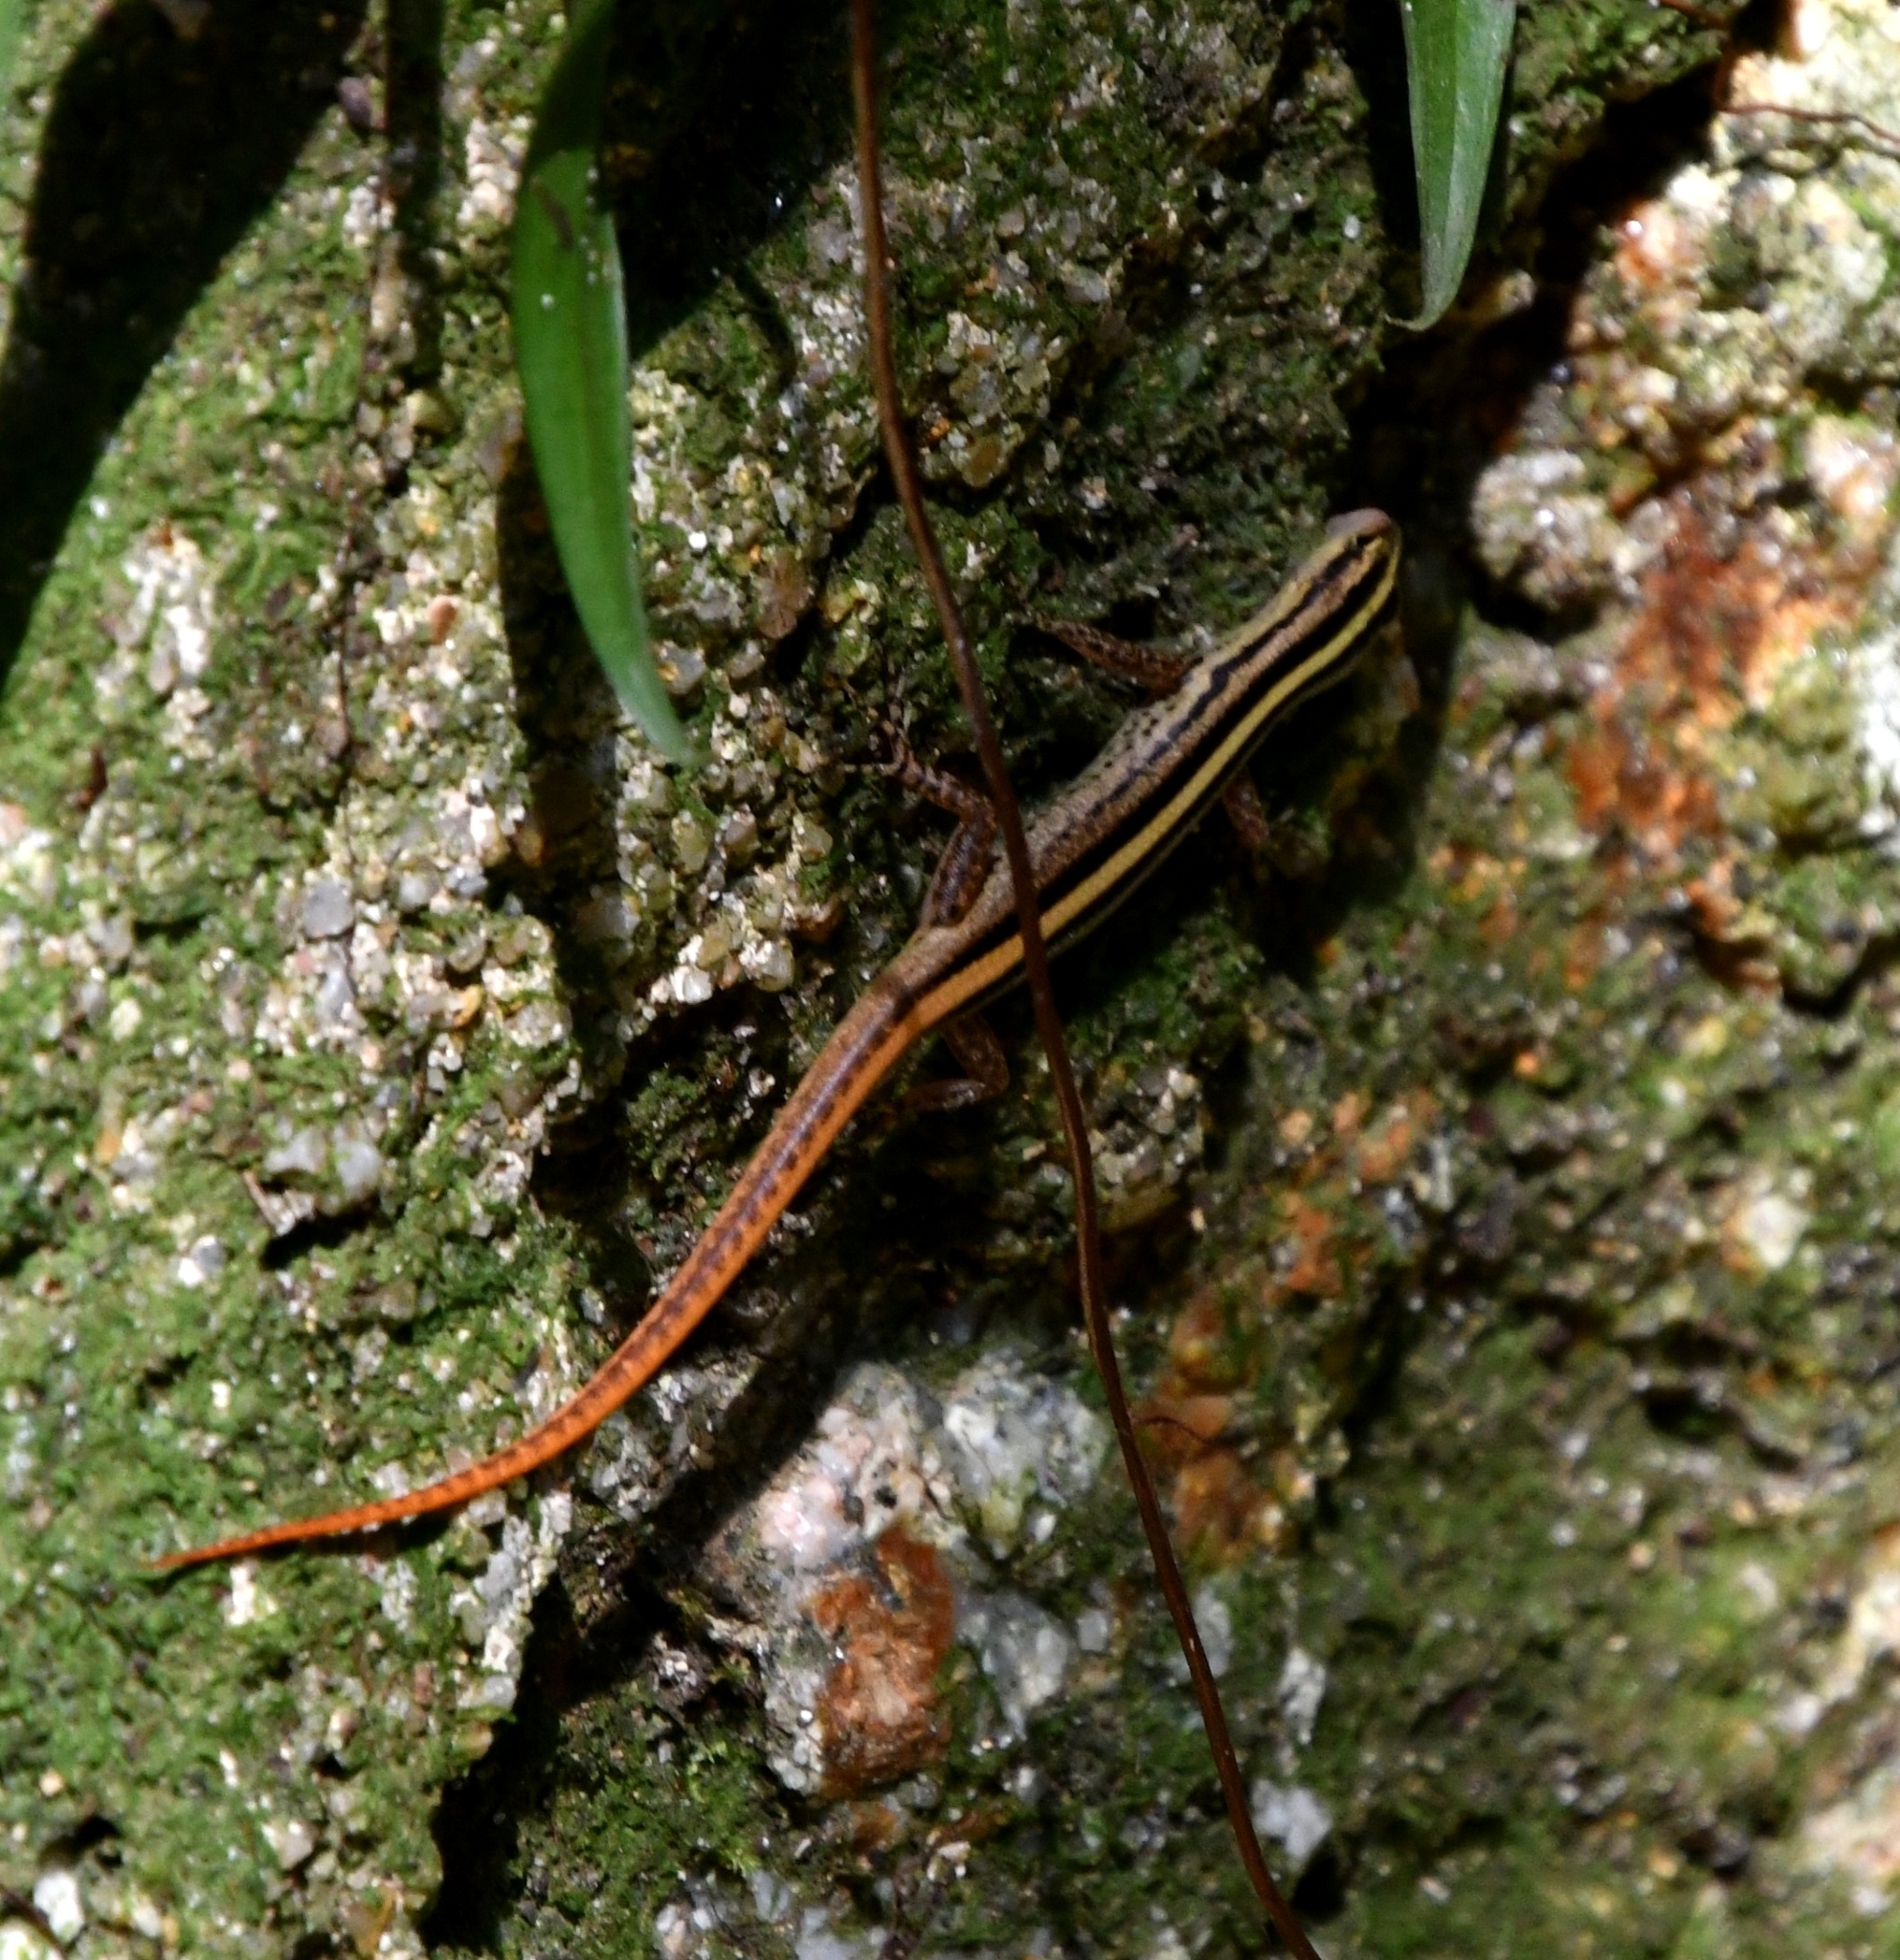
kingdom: Animalia
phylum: Chordata
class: Squamata
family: Scincidae
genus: Lipinia
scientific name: Lipinia vittigera
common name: Banded lipinia
